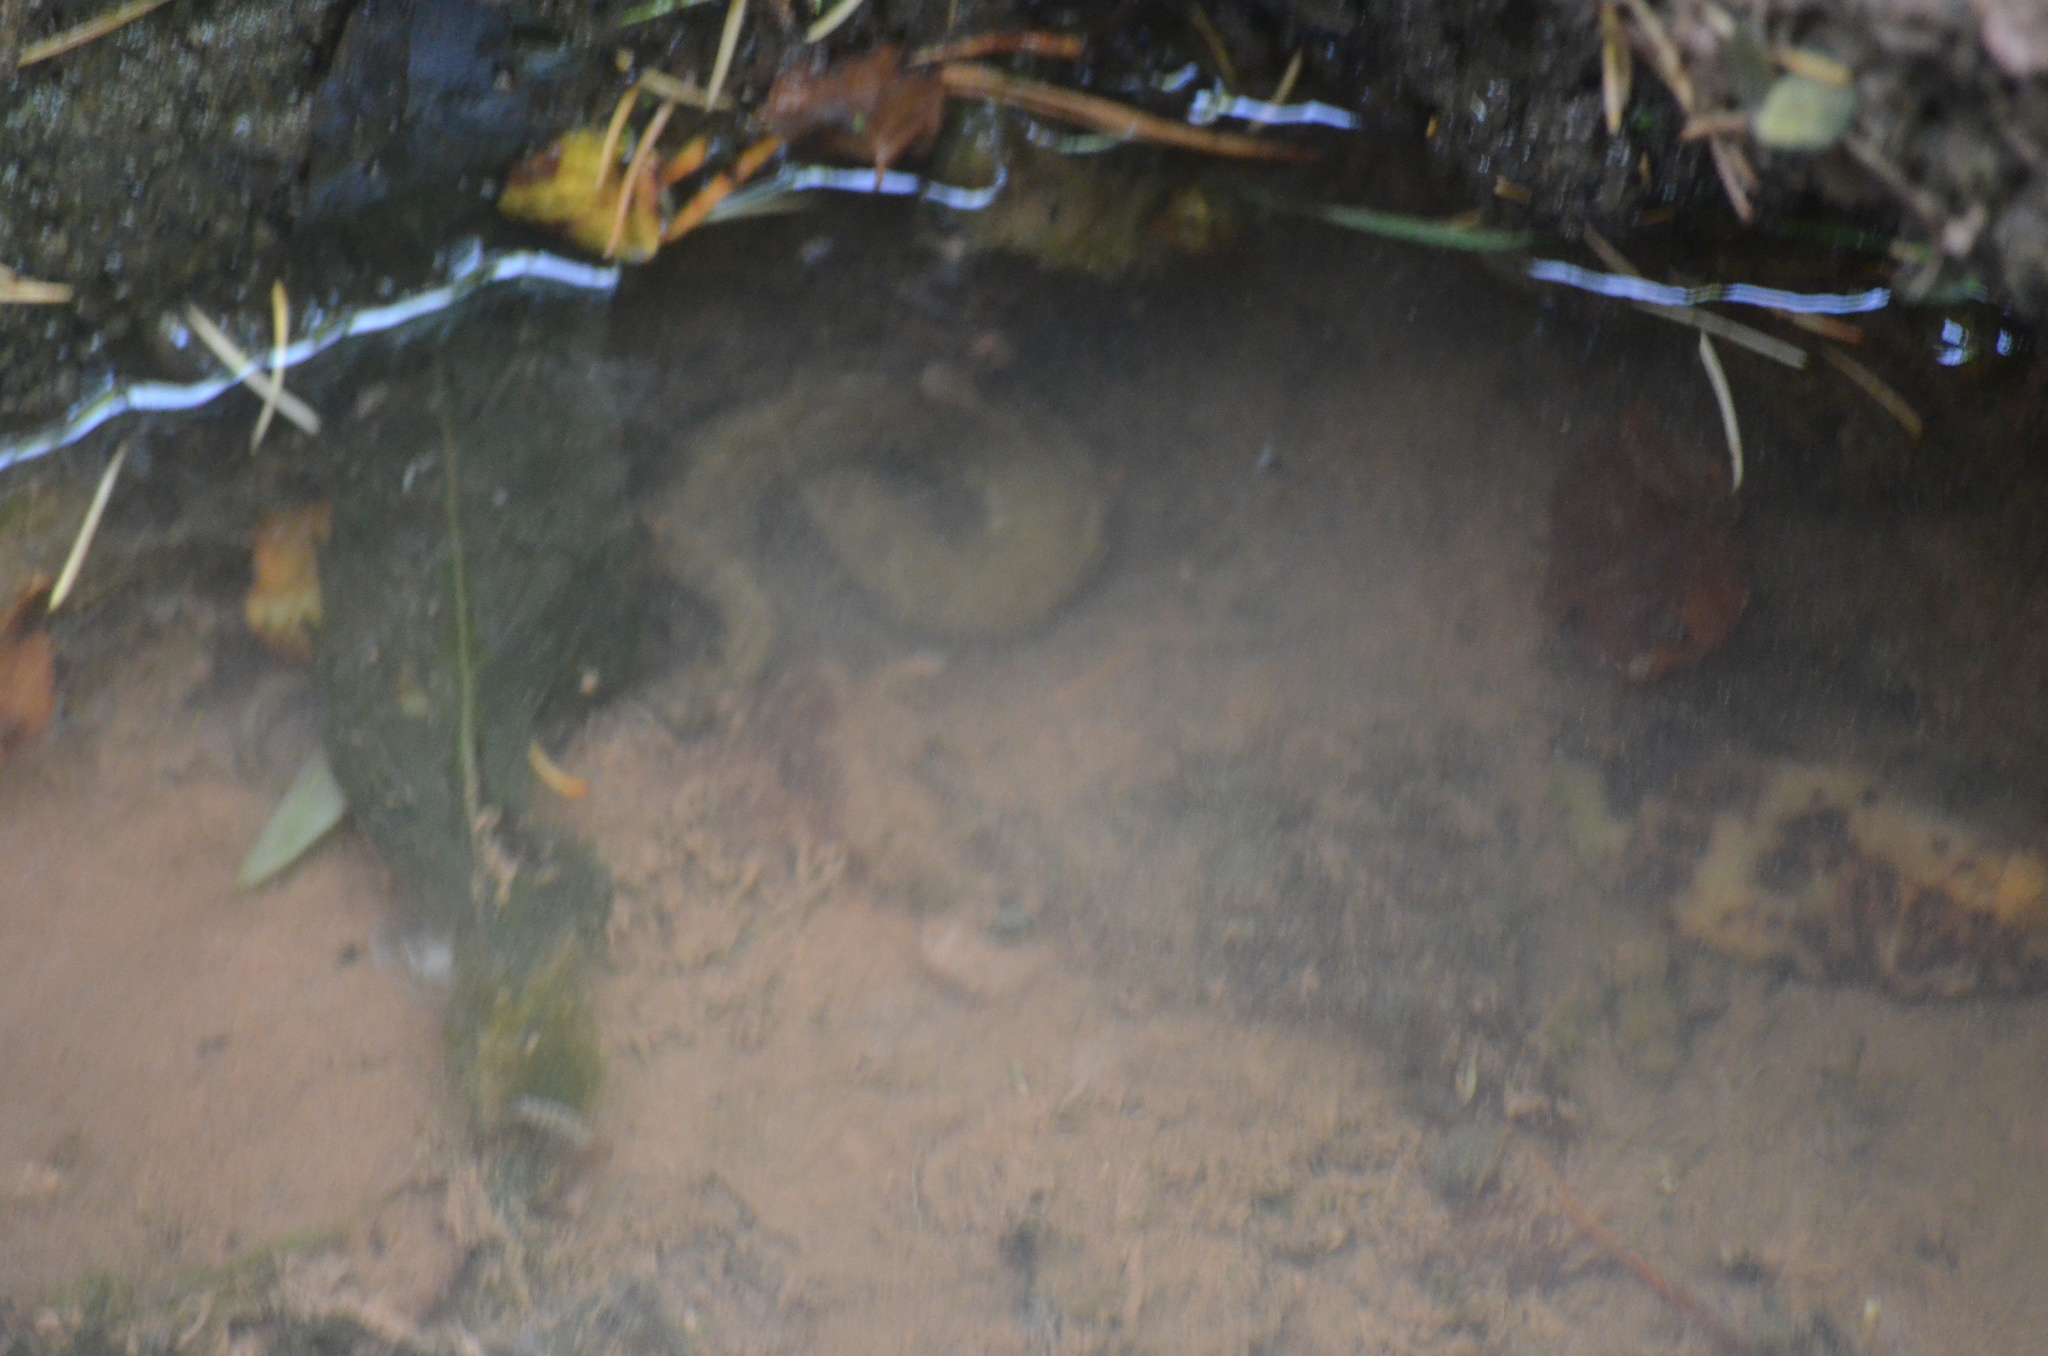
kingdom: Animalia
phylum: Chordata
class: Squamata
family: Colubridae
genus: Natrix
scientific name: Natrix maura
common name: Viperine water snake
